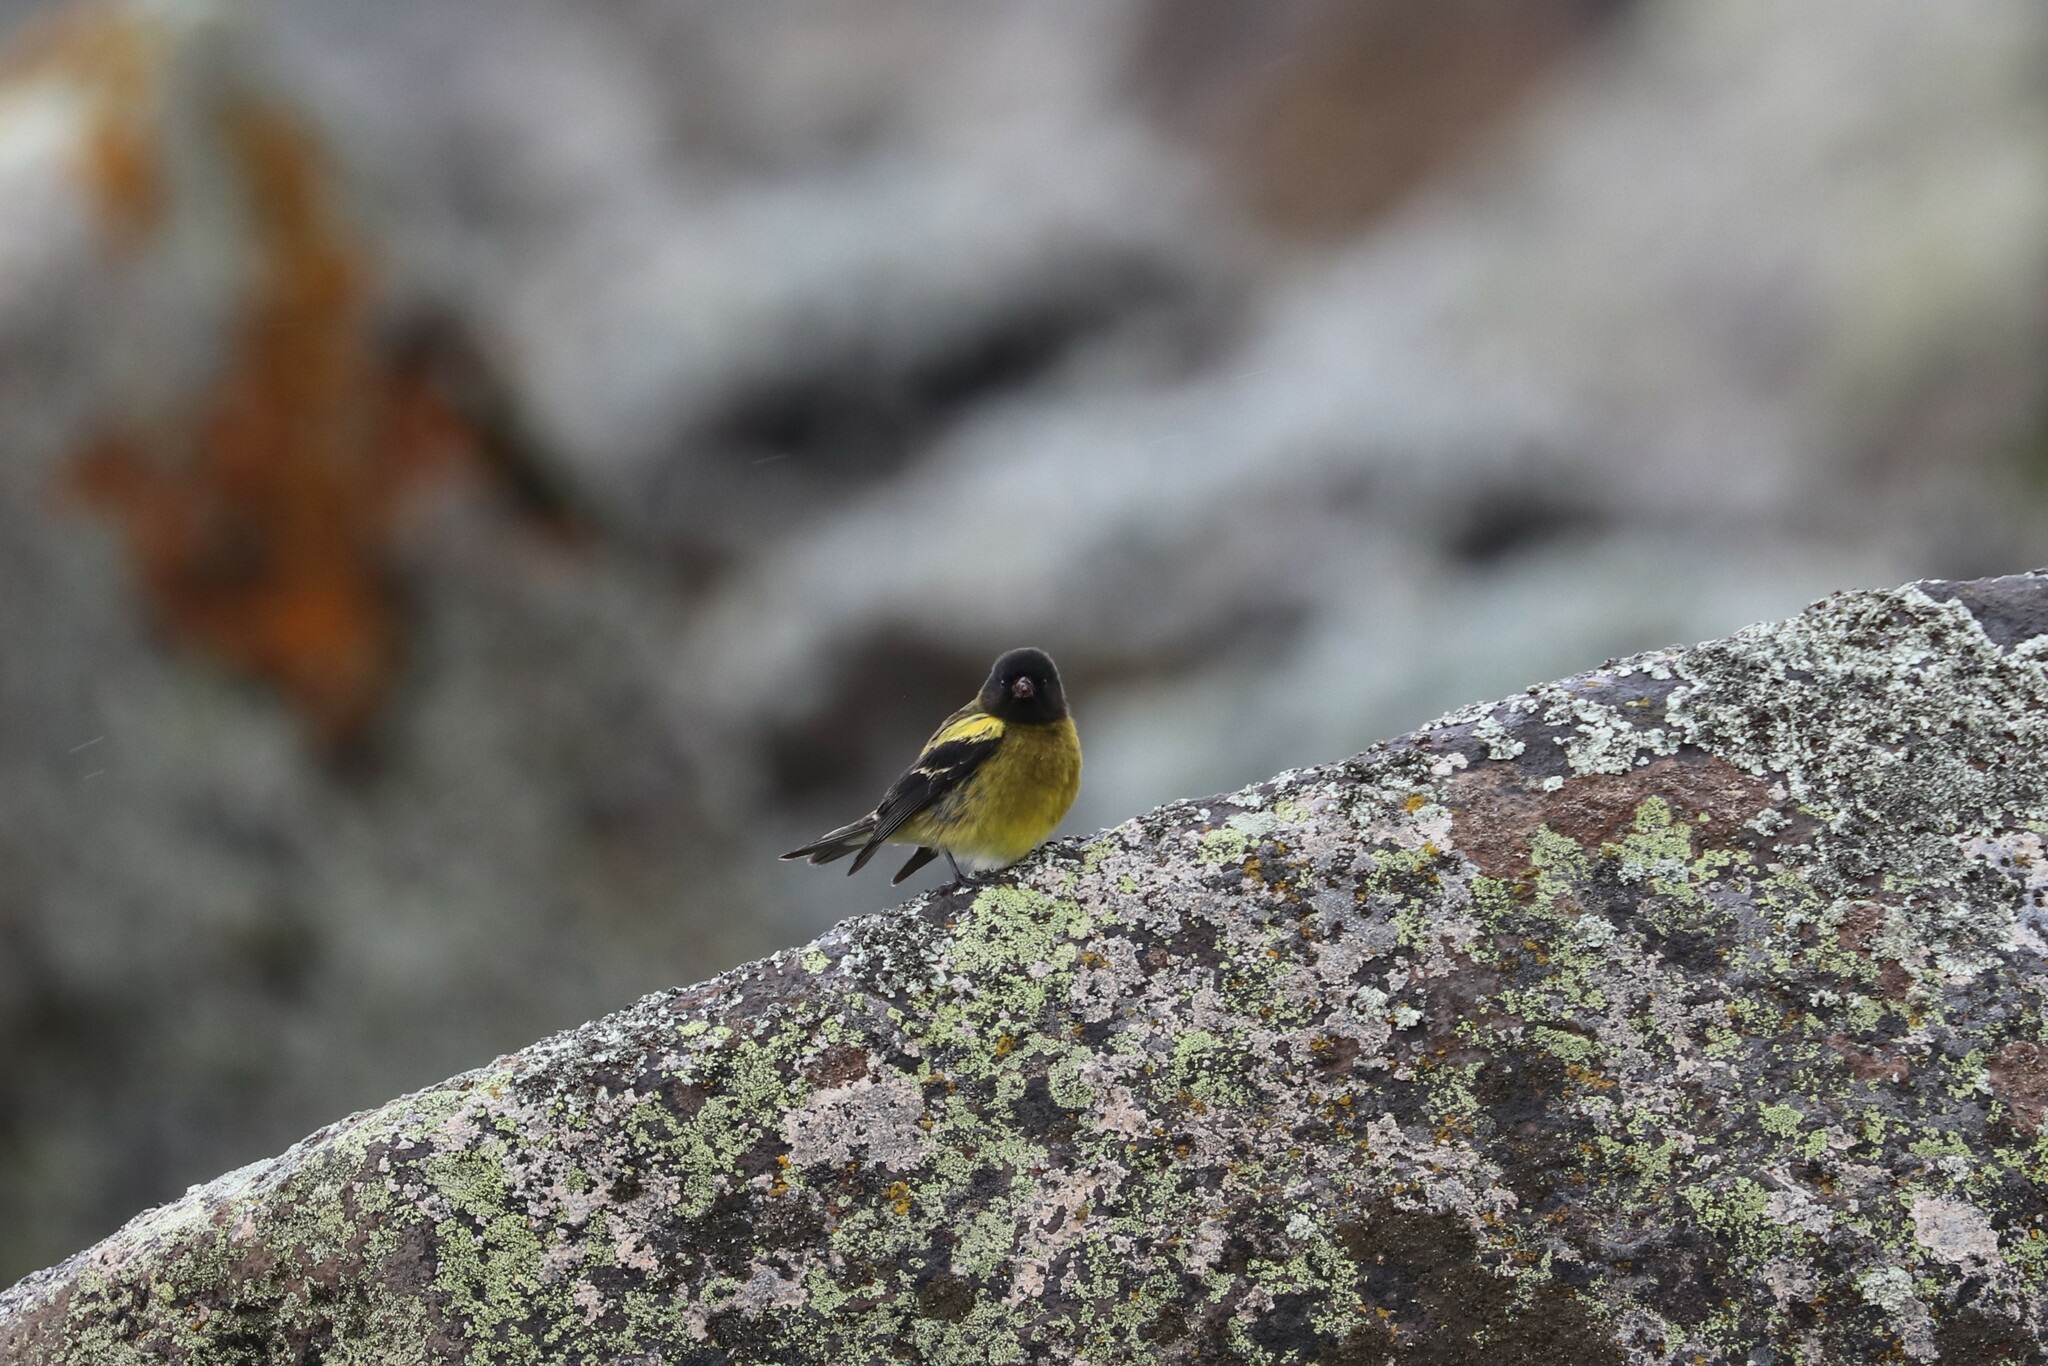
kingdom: Animalia
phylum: Chordata
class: Aves
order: Passeriformes
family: Fringillidae
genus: Serinus
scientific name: Serinus nigriceps
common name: Ethiopian siskin
